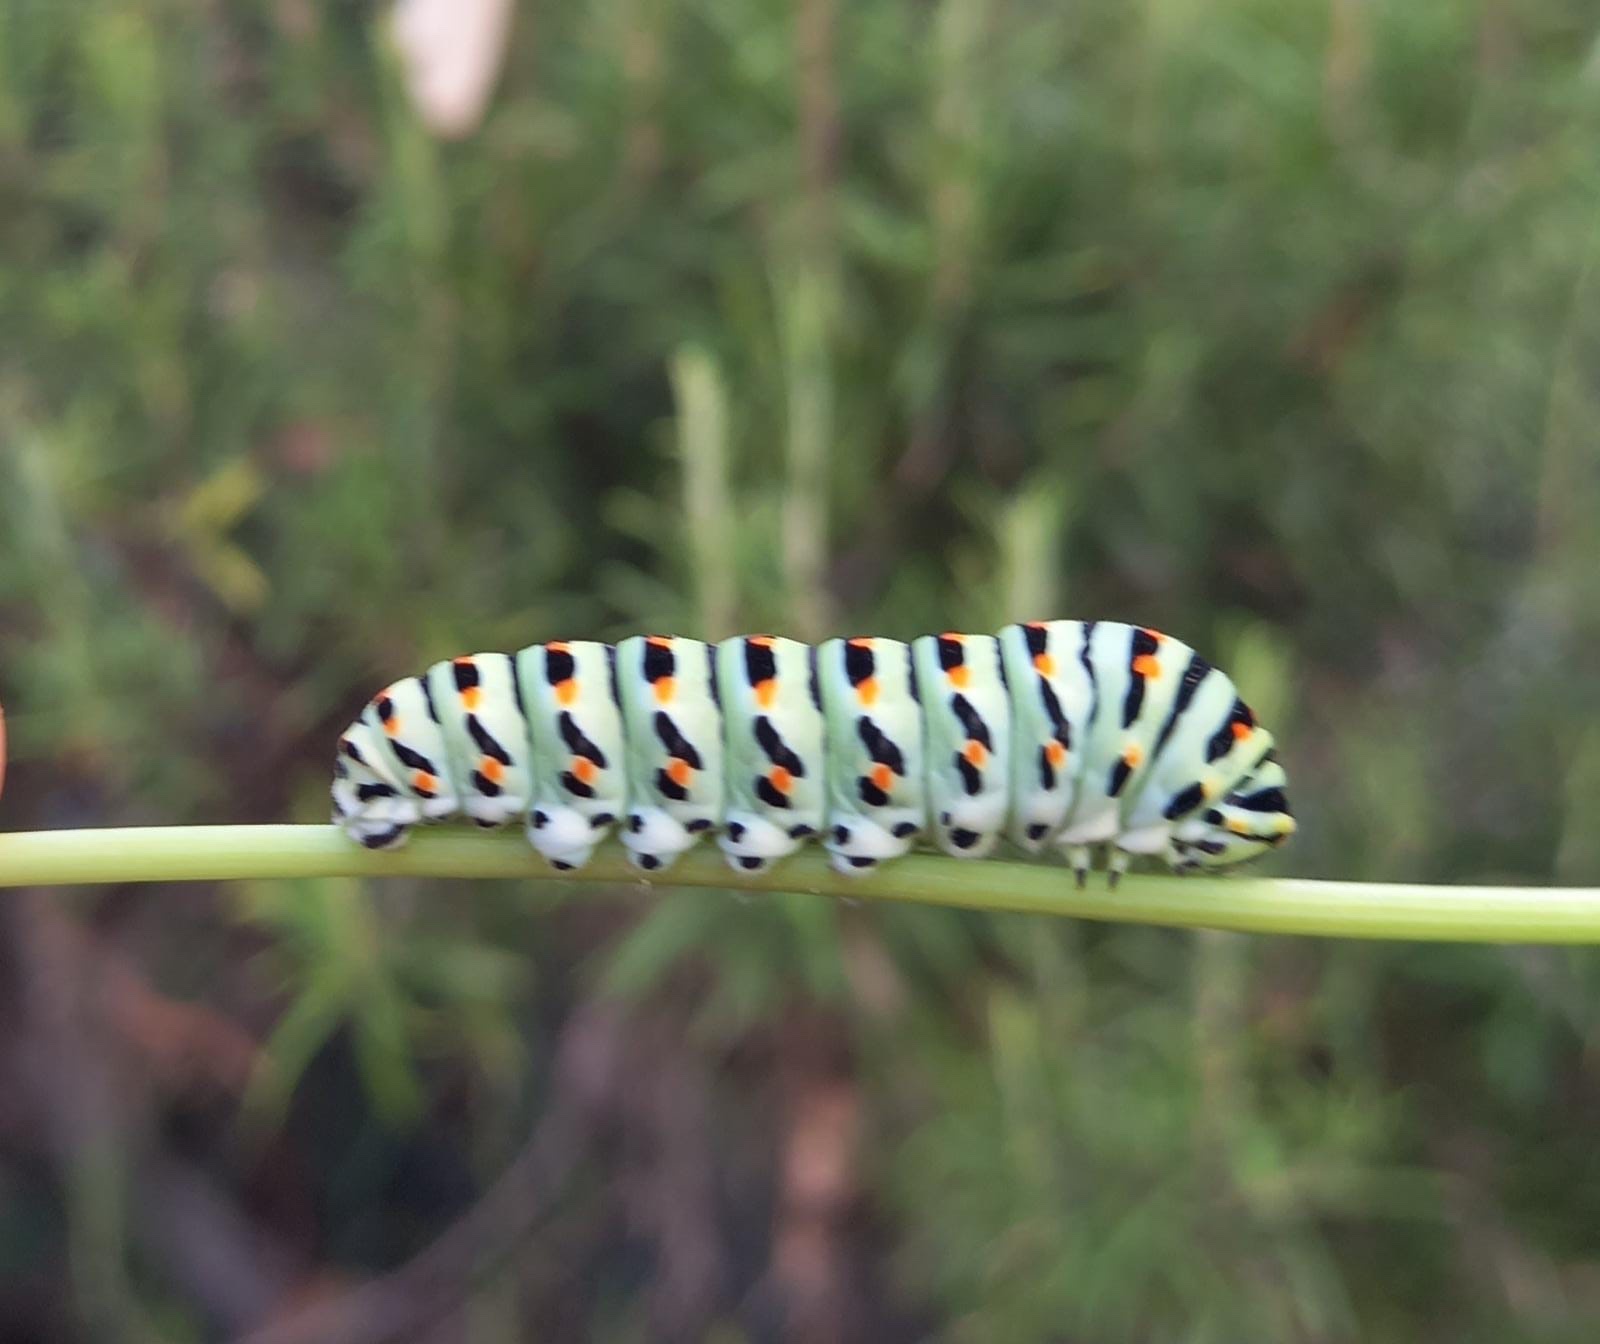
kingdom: Animalia
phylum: Arthropoda
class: Insecta
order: Lepidoptera
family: Papilionidae
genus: Papilio
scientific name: Papilio machaon
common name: Swallowtail
